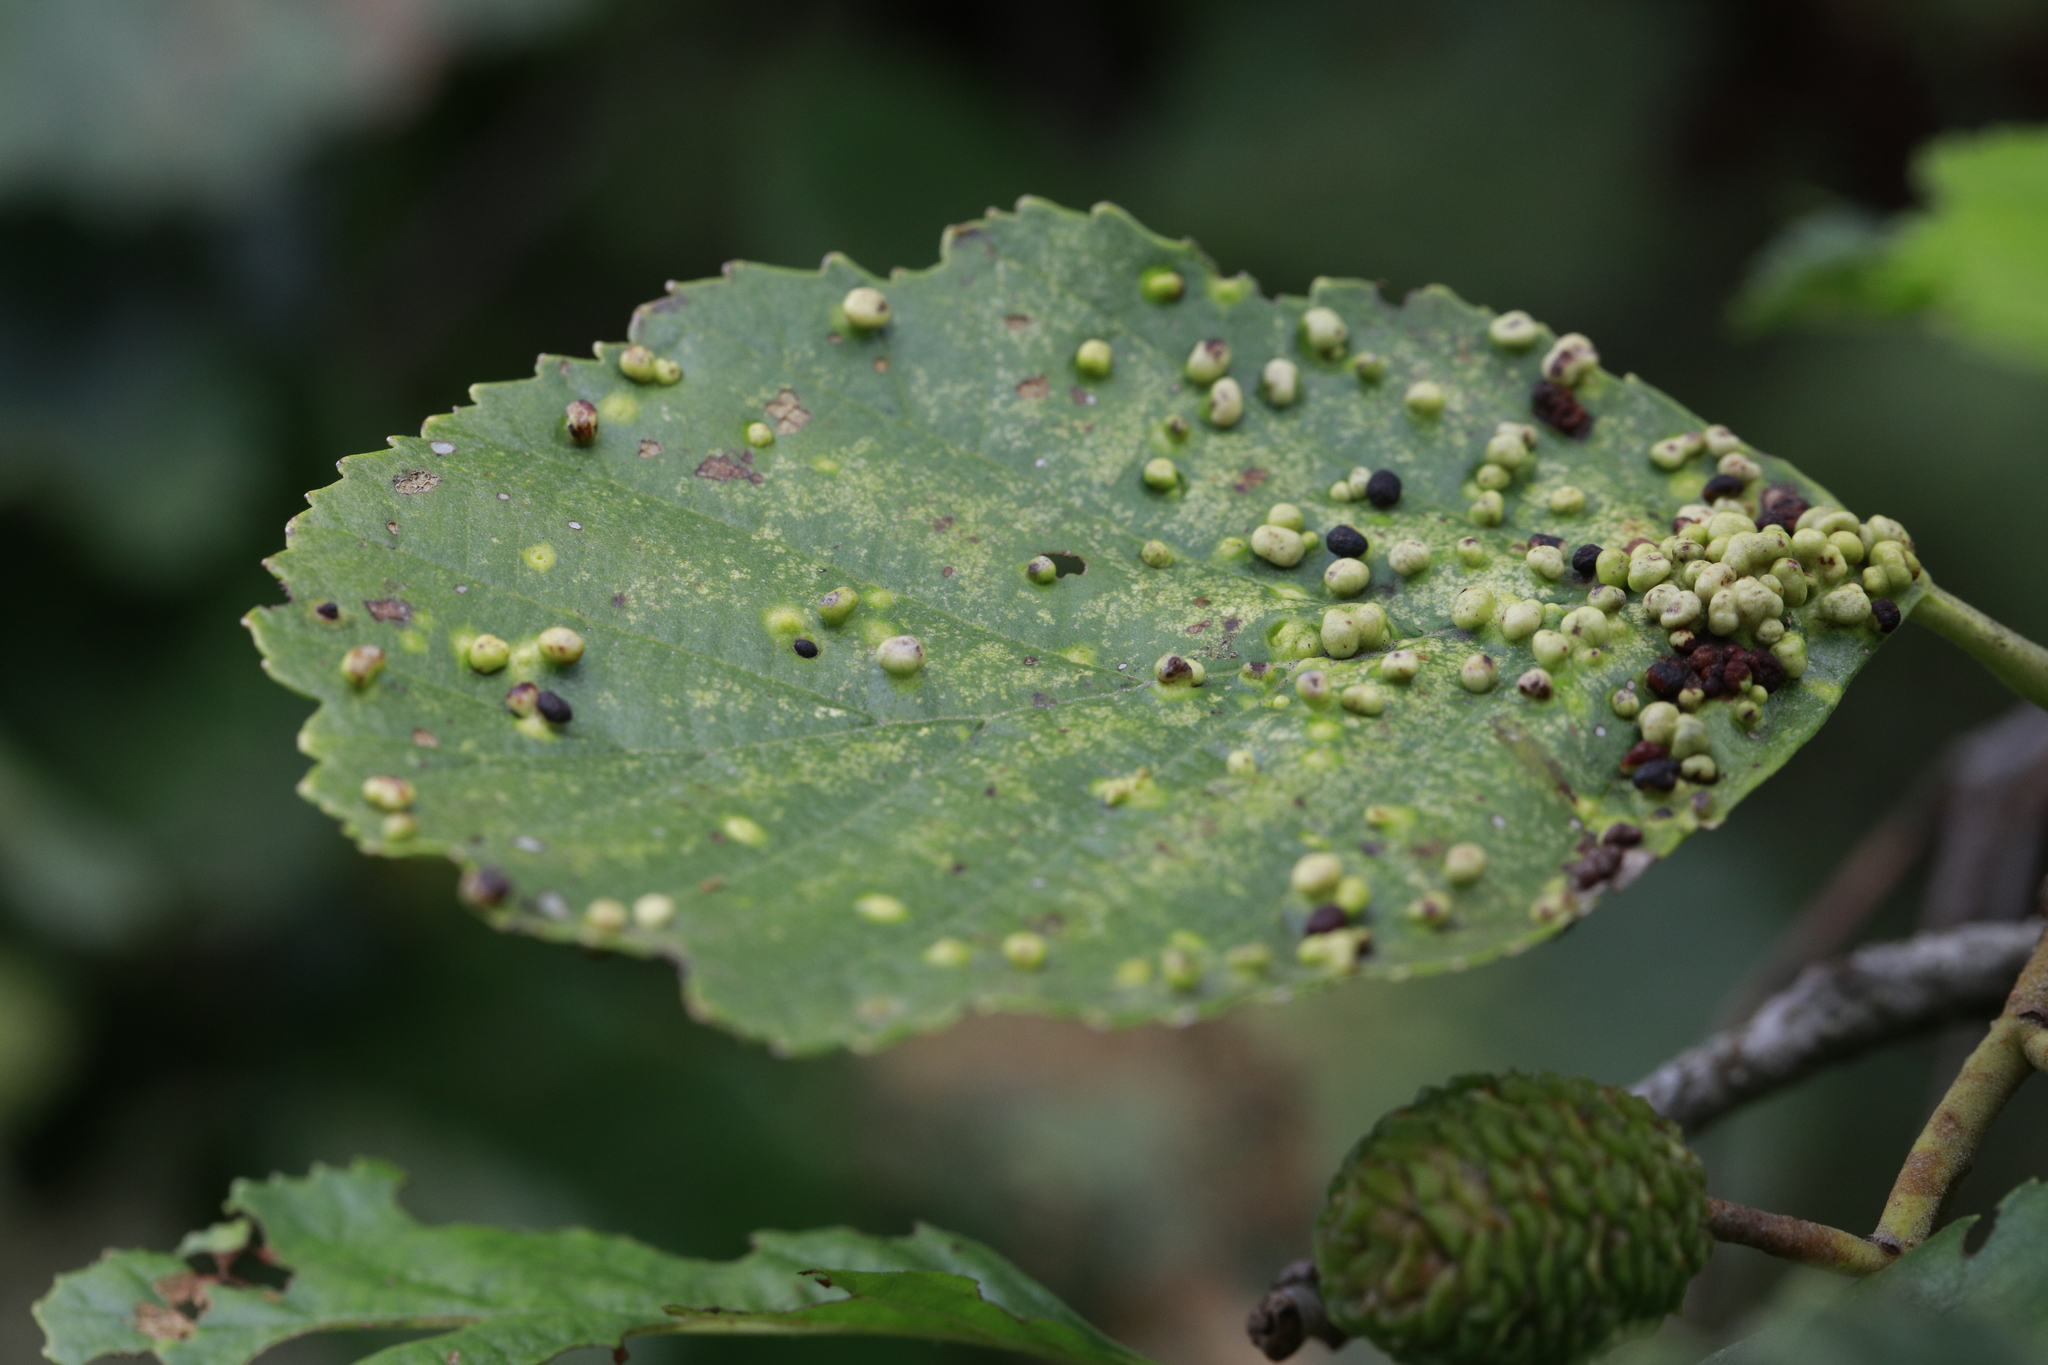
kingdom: Animalia
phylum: Arthropoda
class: Arachnida
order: Trombidiformes
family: Eriophyidae
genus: Eriophyes
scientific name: Eriophyes laevis
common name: Alder leaf gall mite
